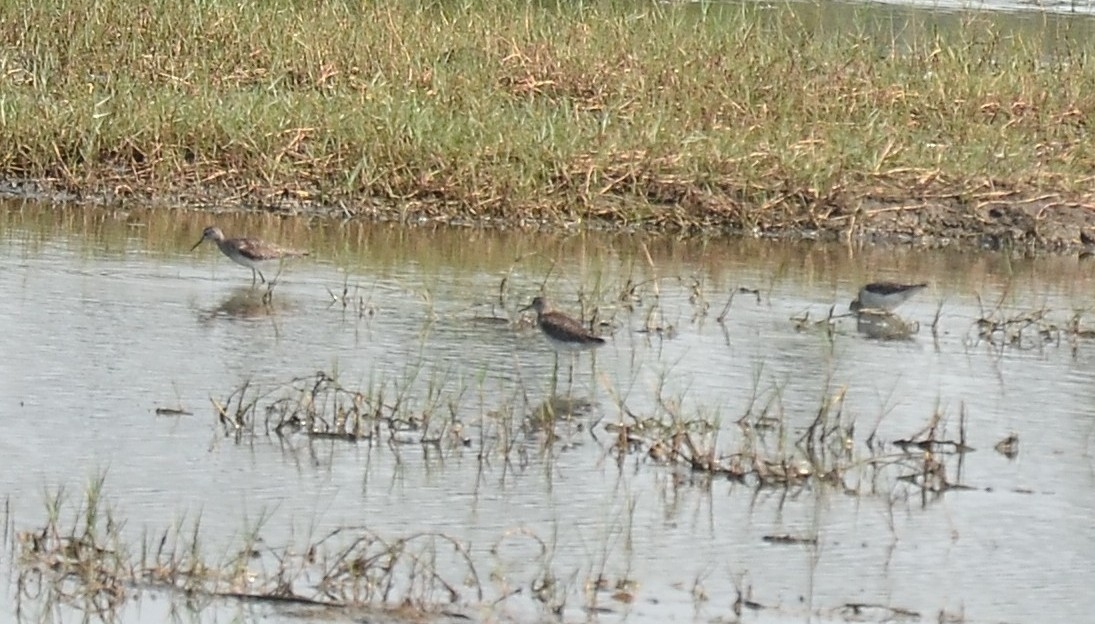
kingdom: Animalia
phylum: Chordata
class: Aves
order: Charadriiformes
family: Scolopacidae
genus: Tringa
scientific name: Tringa glareola
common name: Wood sandpiper
